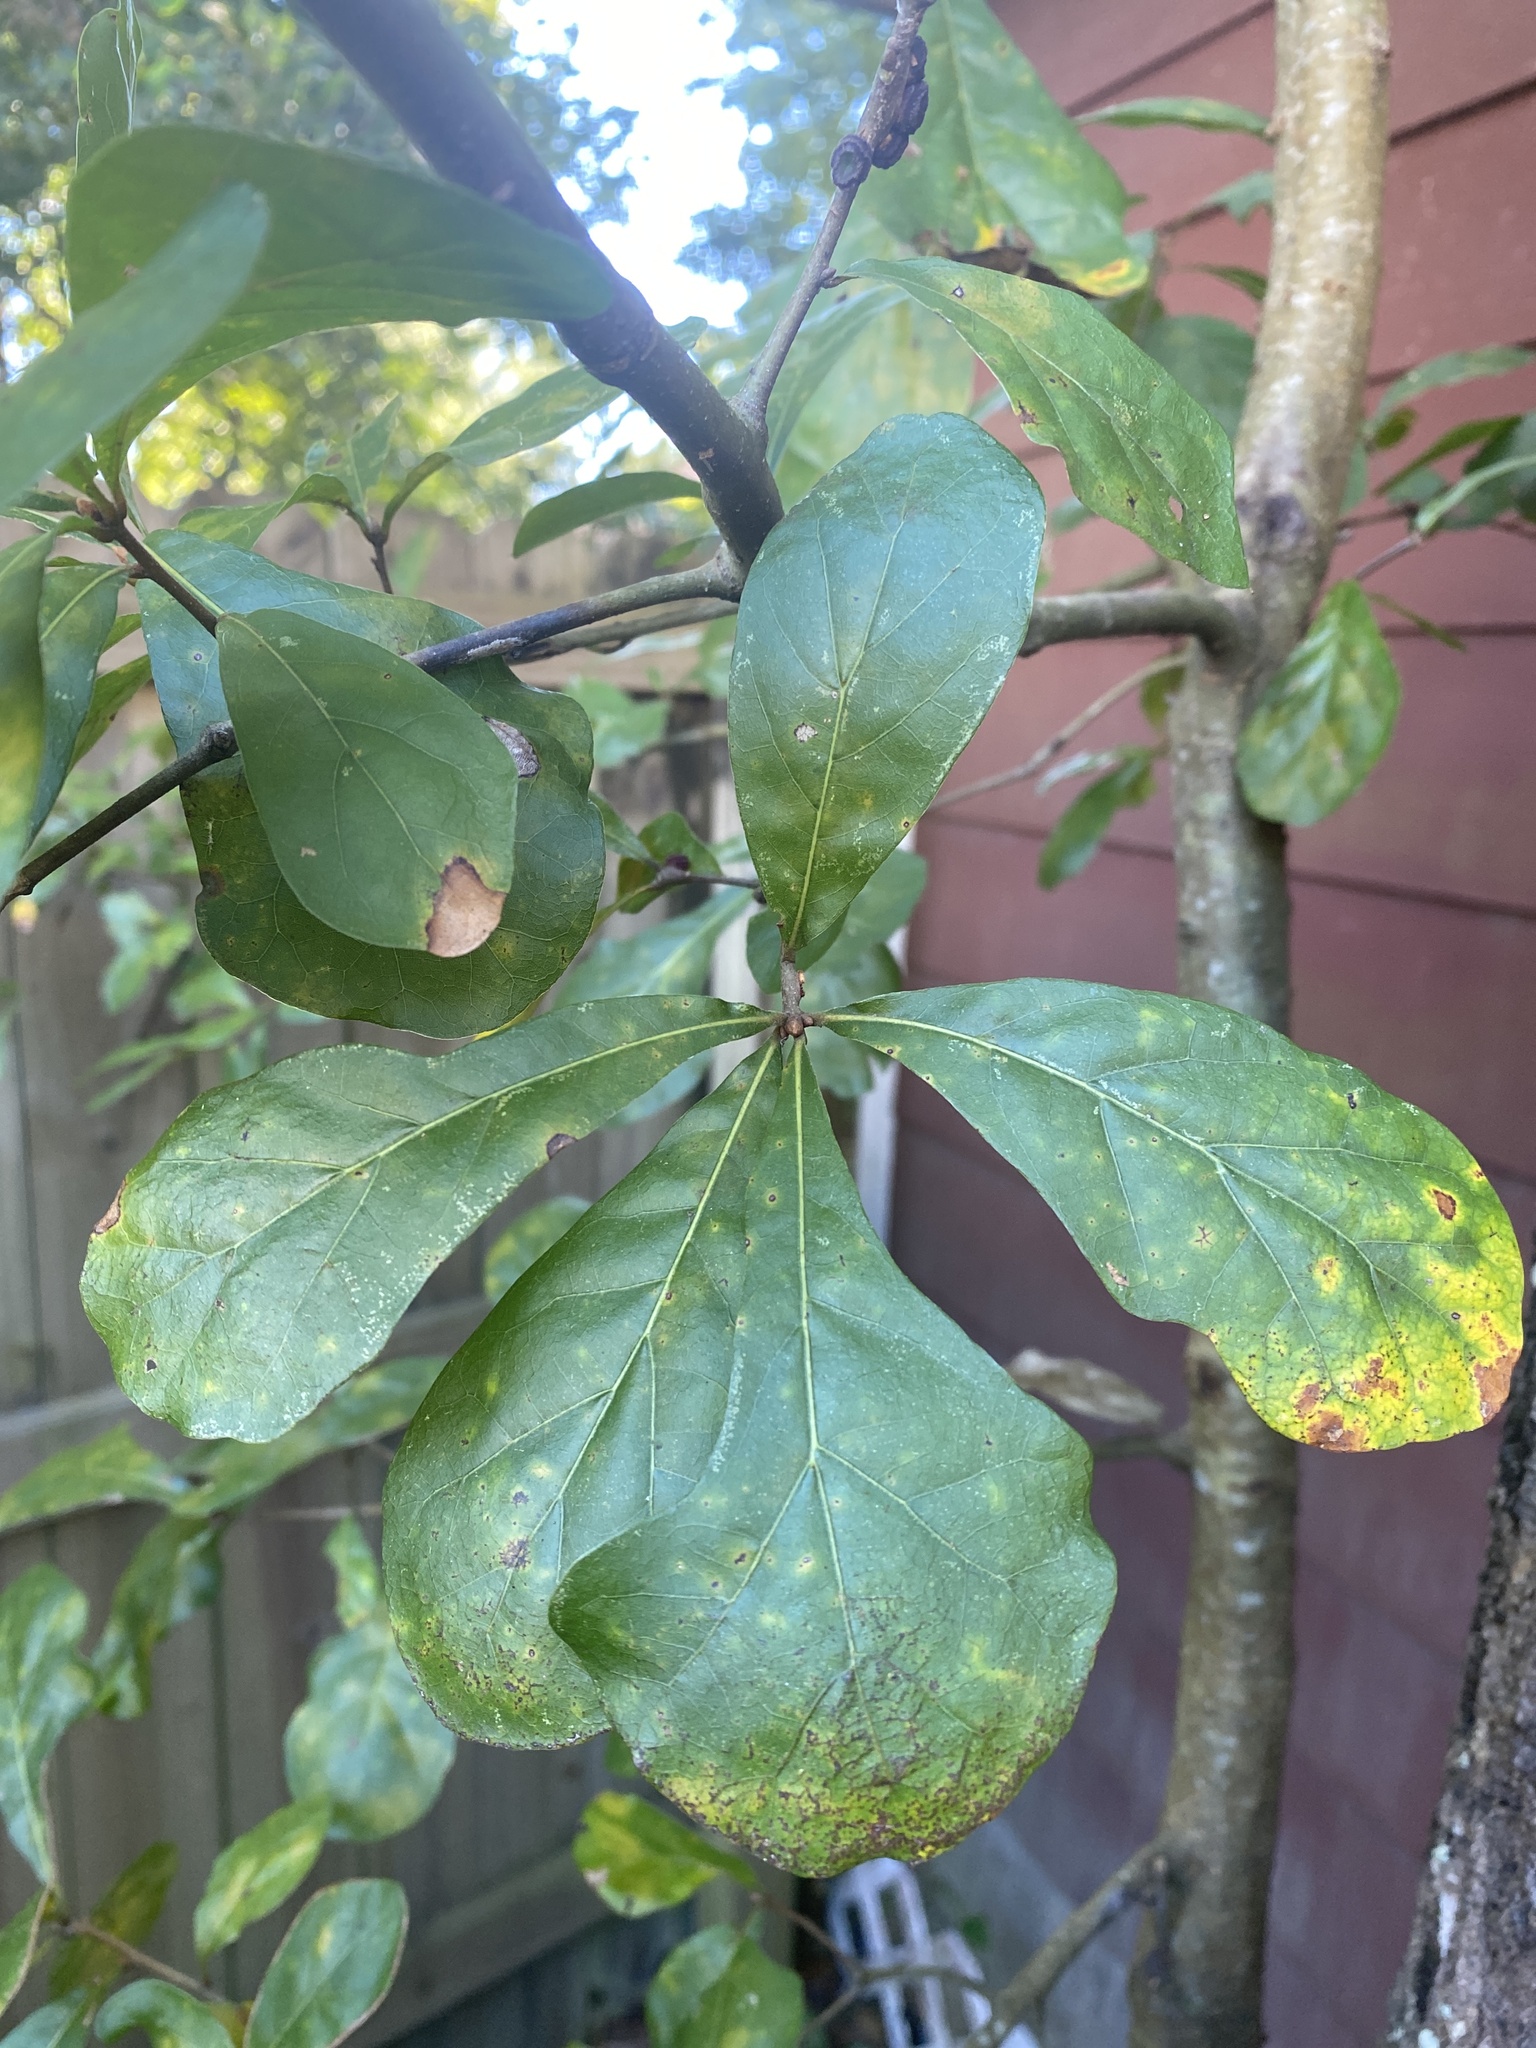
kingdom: Plantae
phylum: Tracheophyta
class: Magnoliopsida
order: Fagales
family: Fagaceae
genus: Quercus
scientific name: Quercus nigra
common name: Water oak
